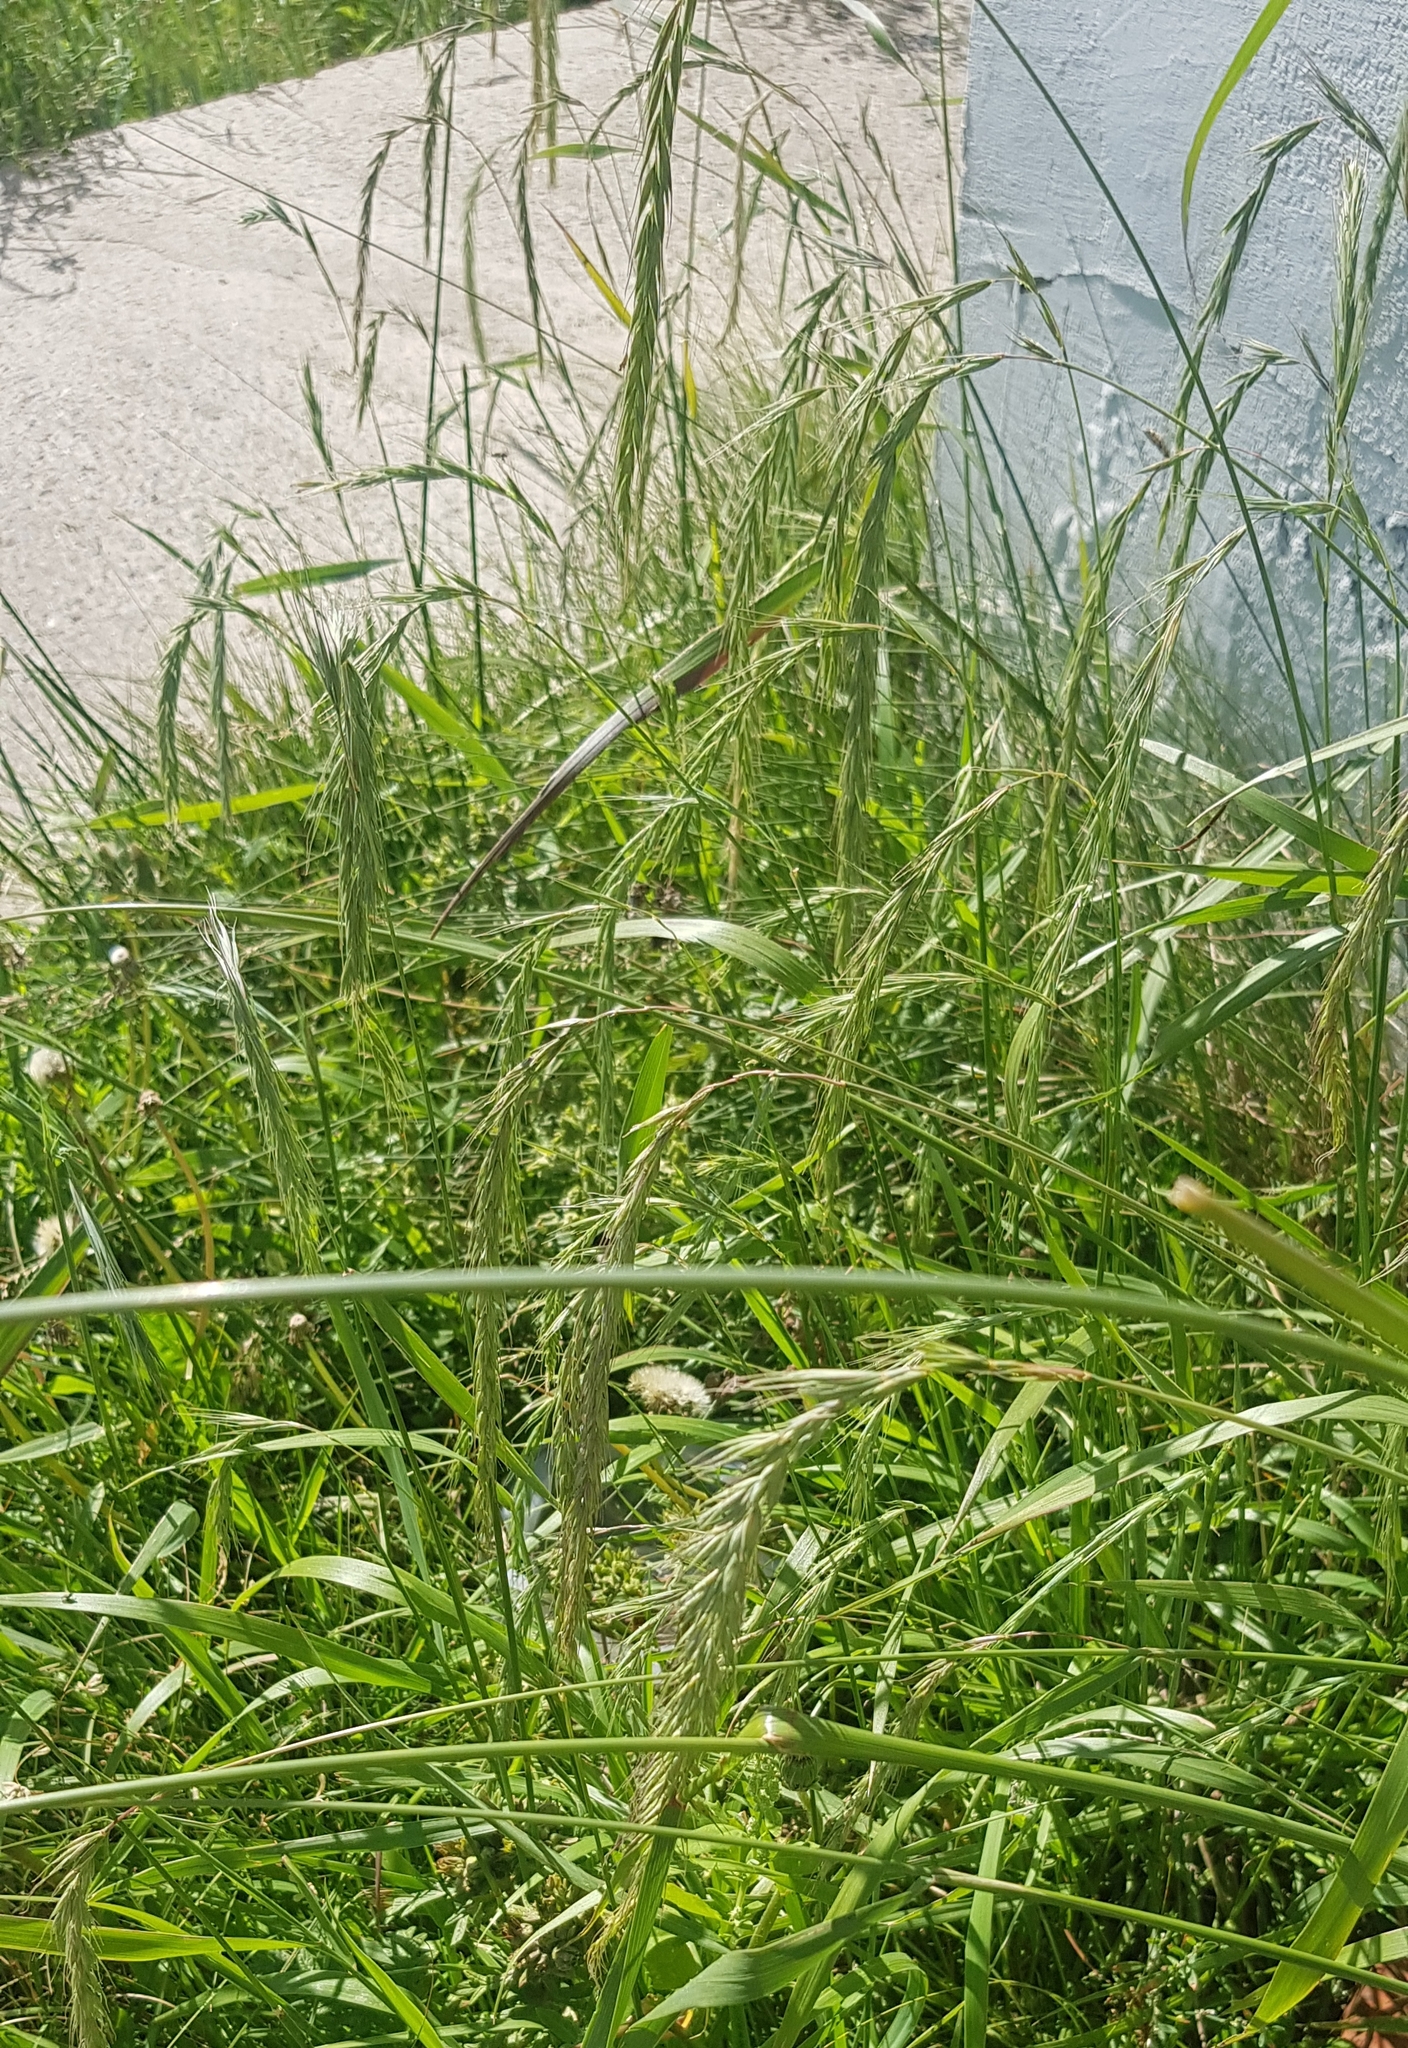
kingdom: Plantae
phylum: Tracheophyta
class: Liliopsida
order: Poales
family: Poaceae
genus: Elymus
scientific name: Elymus sibiricus
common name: Siberian wildrye
